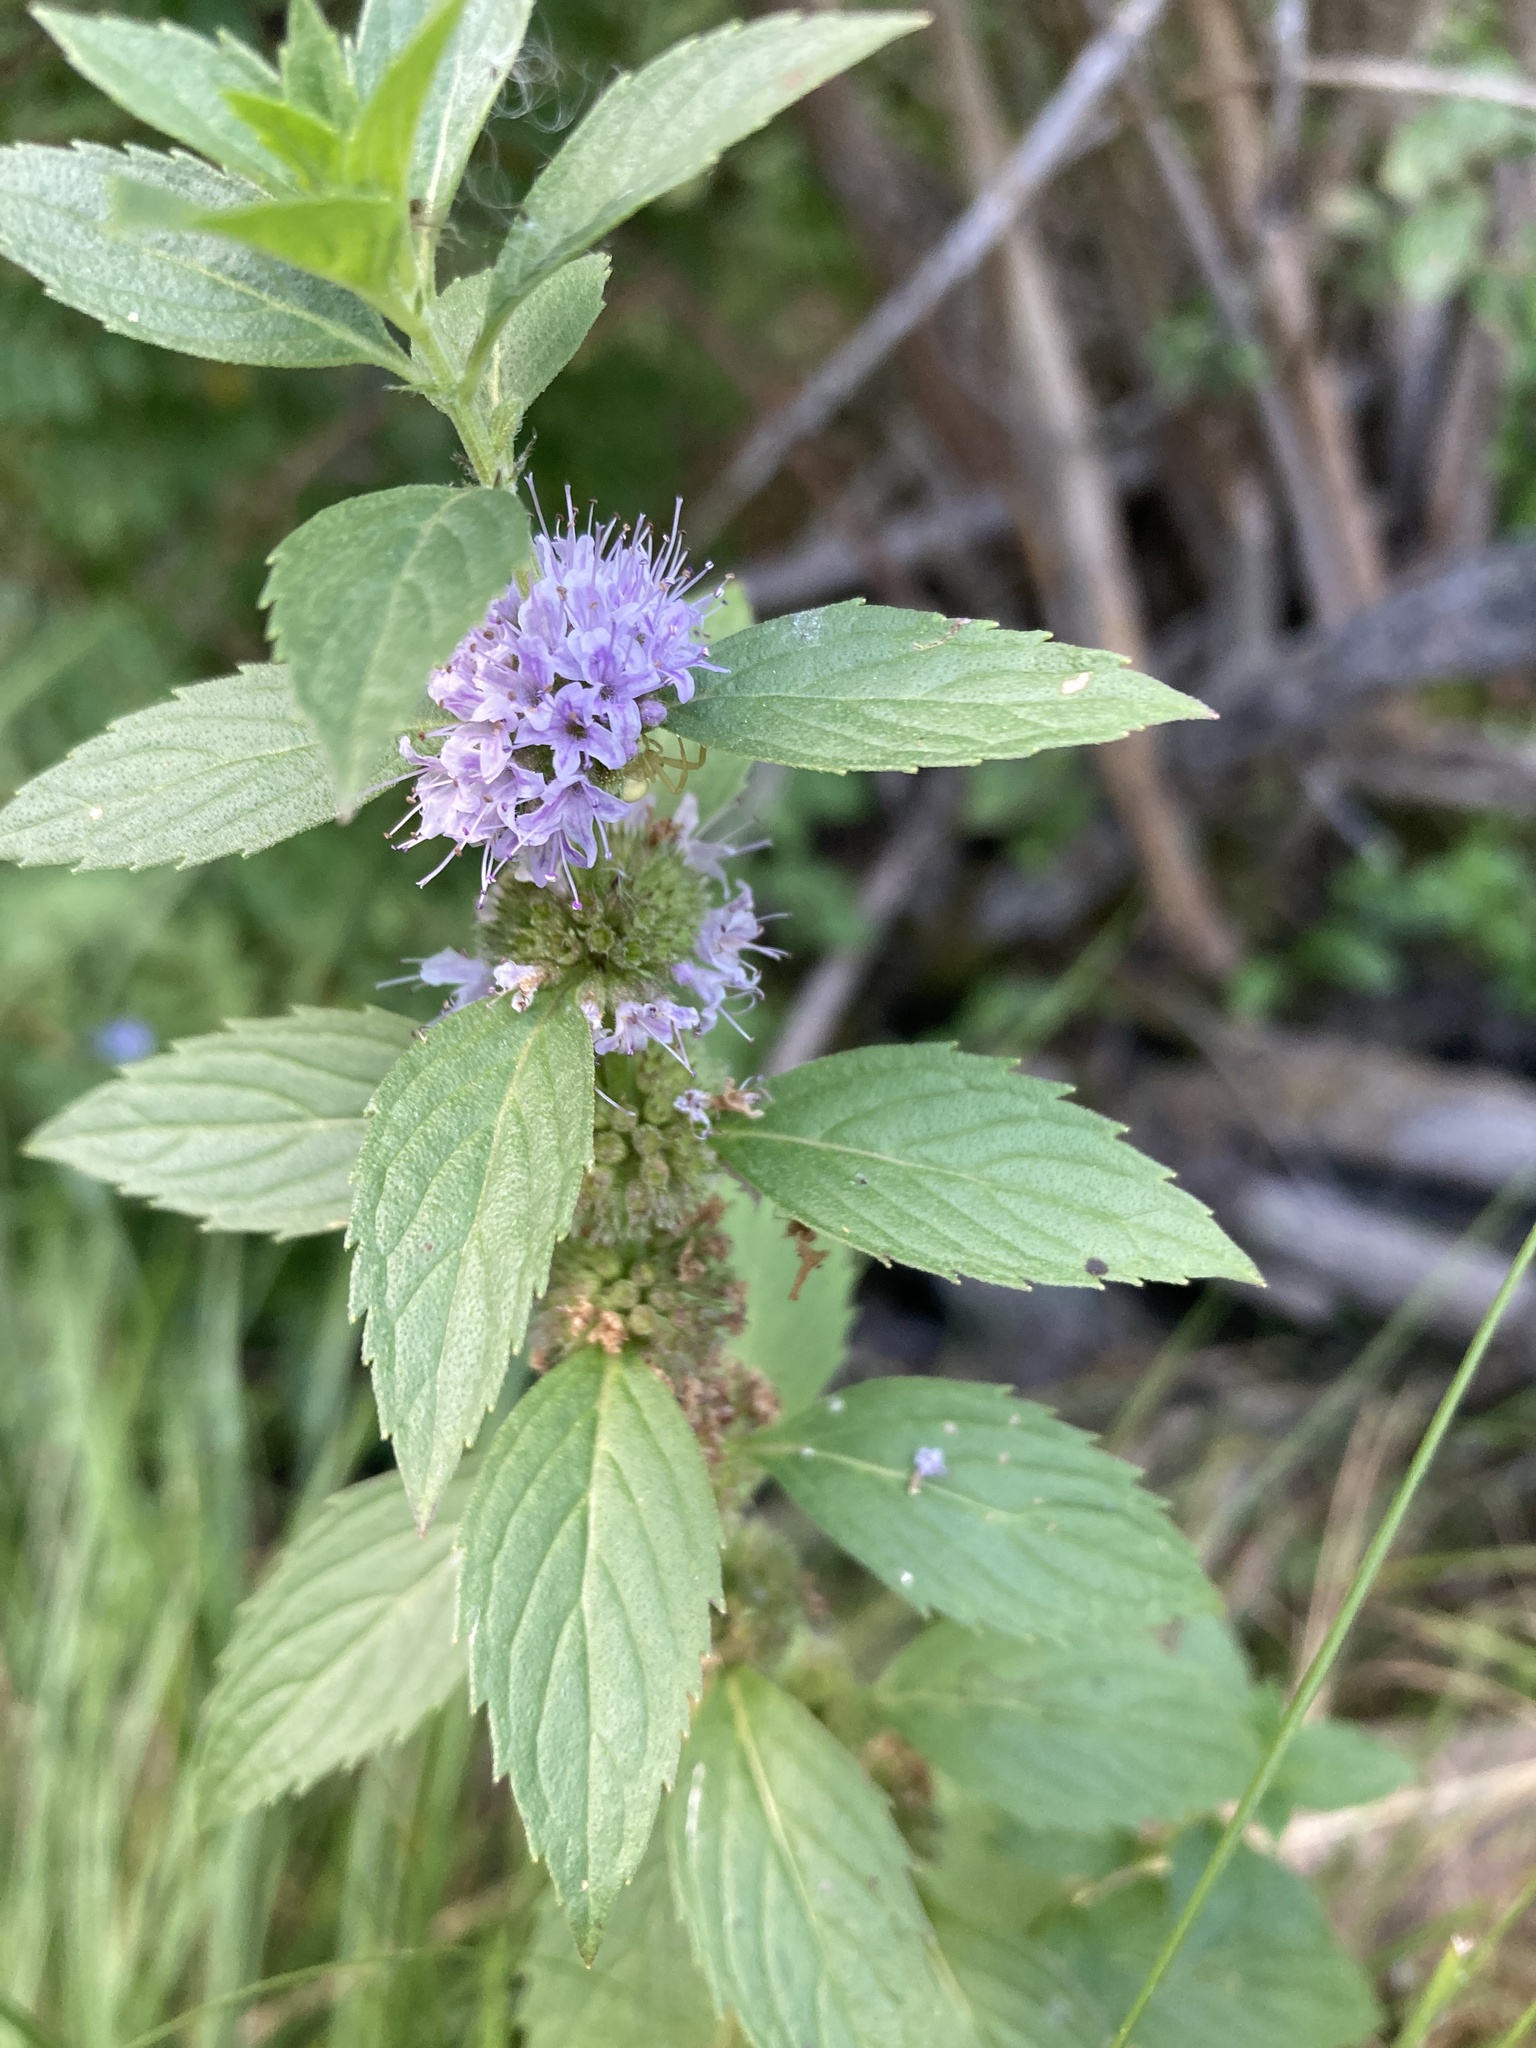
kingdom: Plantae
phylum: Tracheophyta
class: Magnoliopsida
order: Lamiales
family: Lamiaceae
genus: Mentha
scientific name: Mentha canadensis
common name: American corn mint
